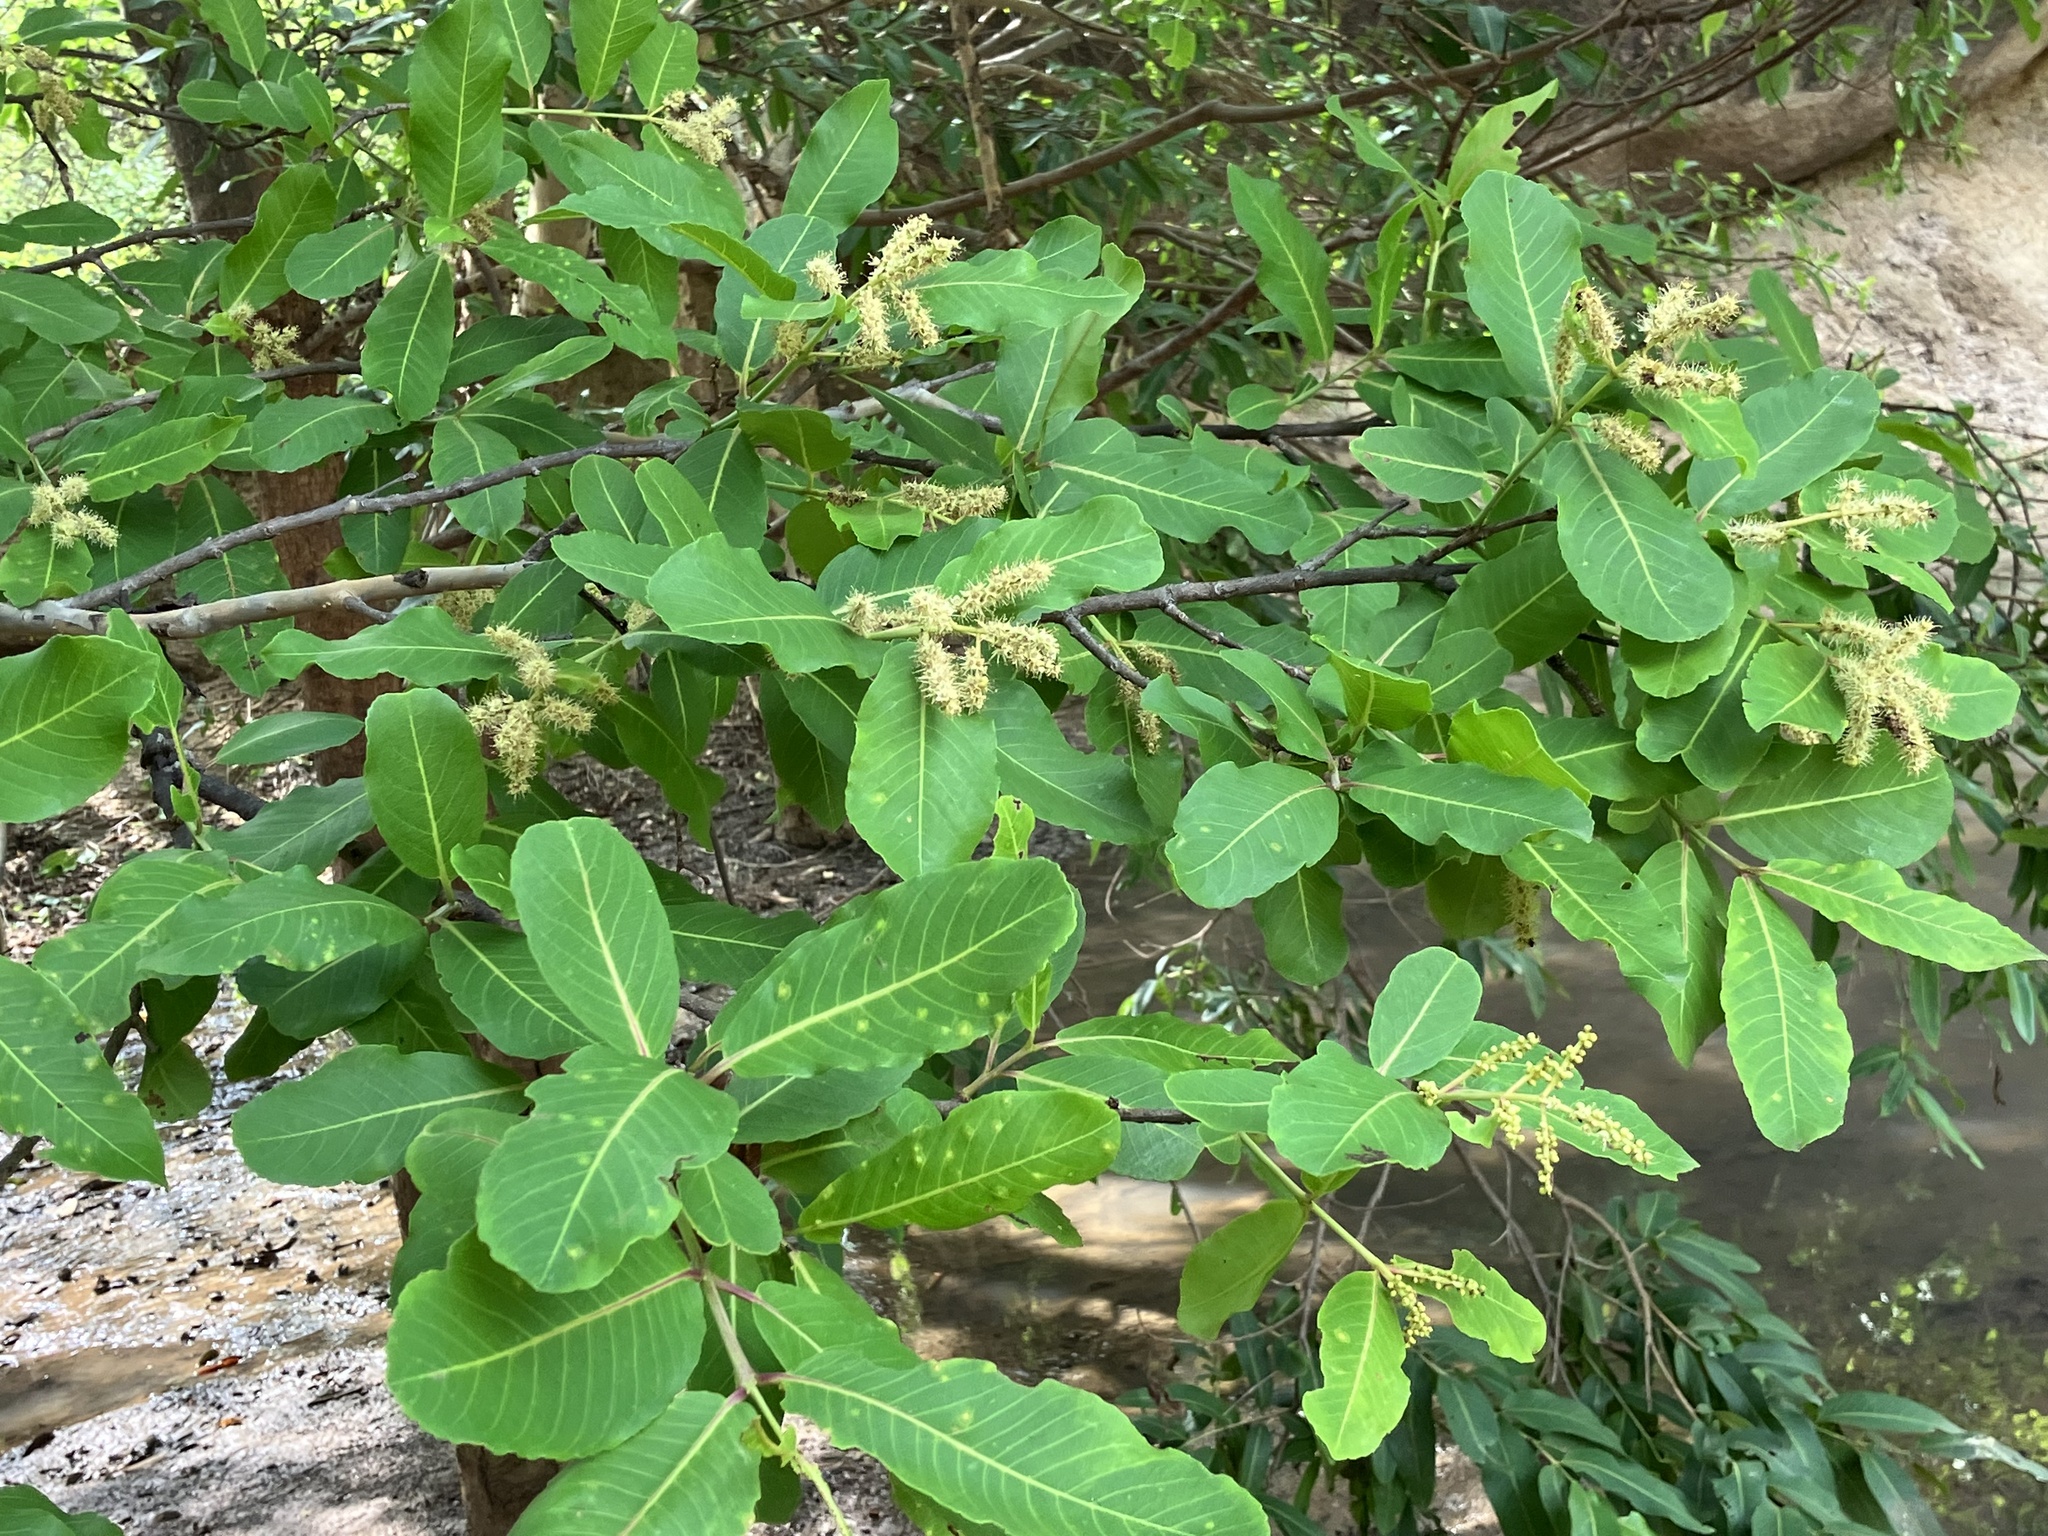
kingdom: Plantae
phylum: Tracheophyta
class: Magnoliopsida
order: Myrtales
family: Combretaceae
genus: Terminalia
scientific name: Terminalia arjuna
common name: Arjun
